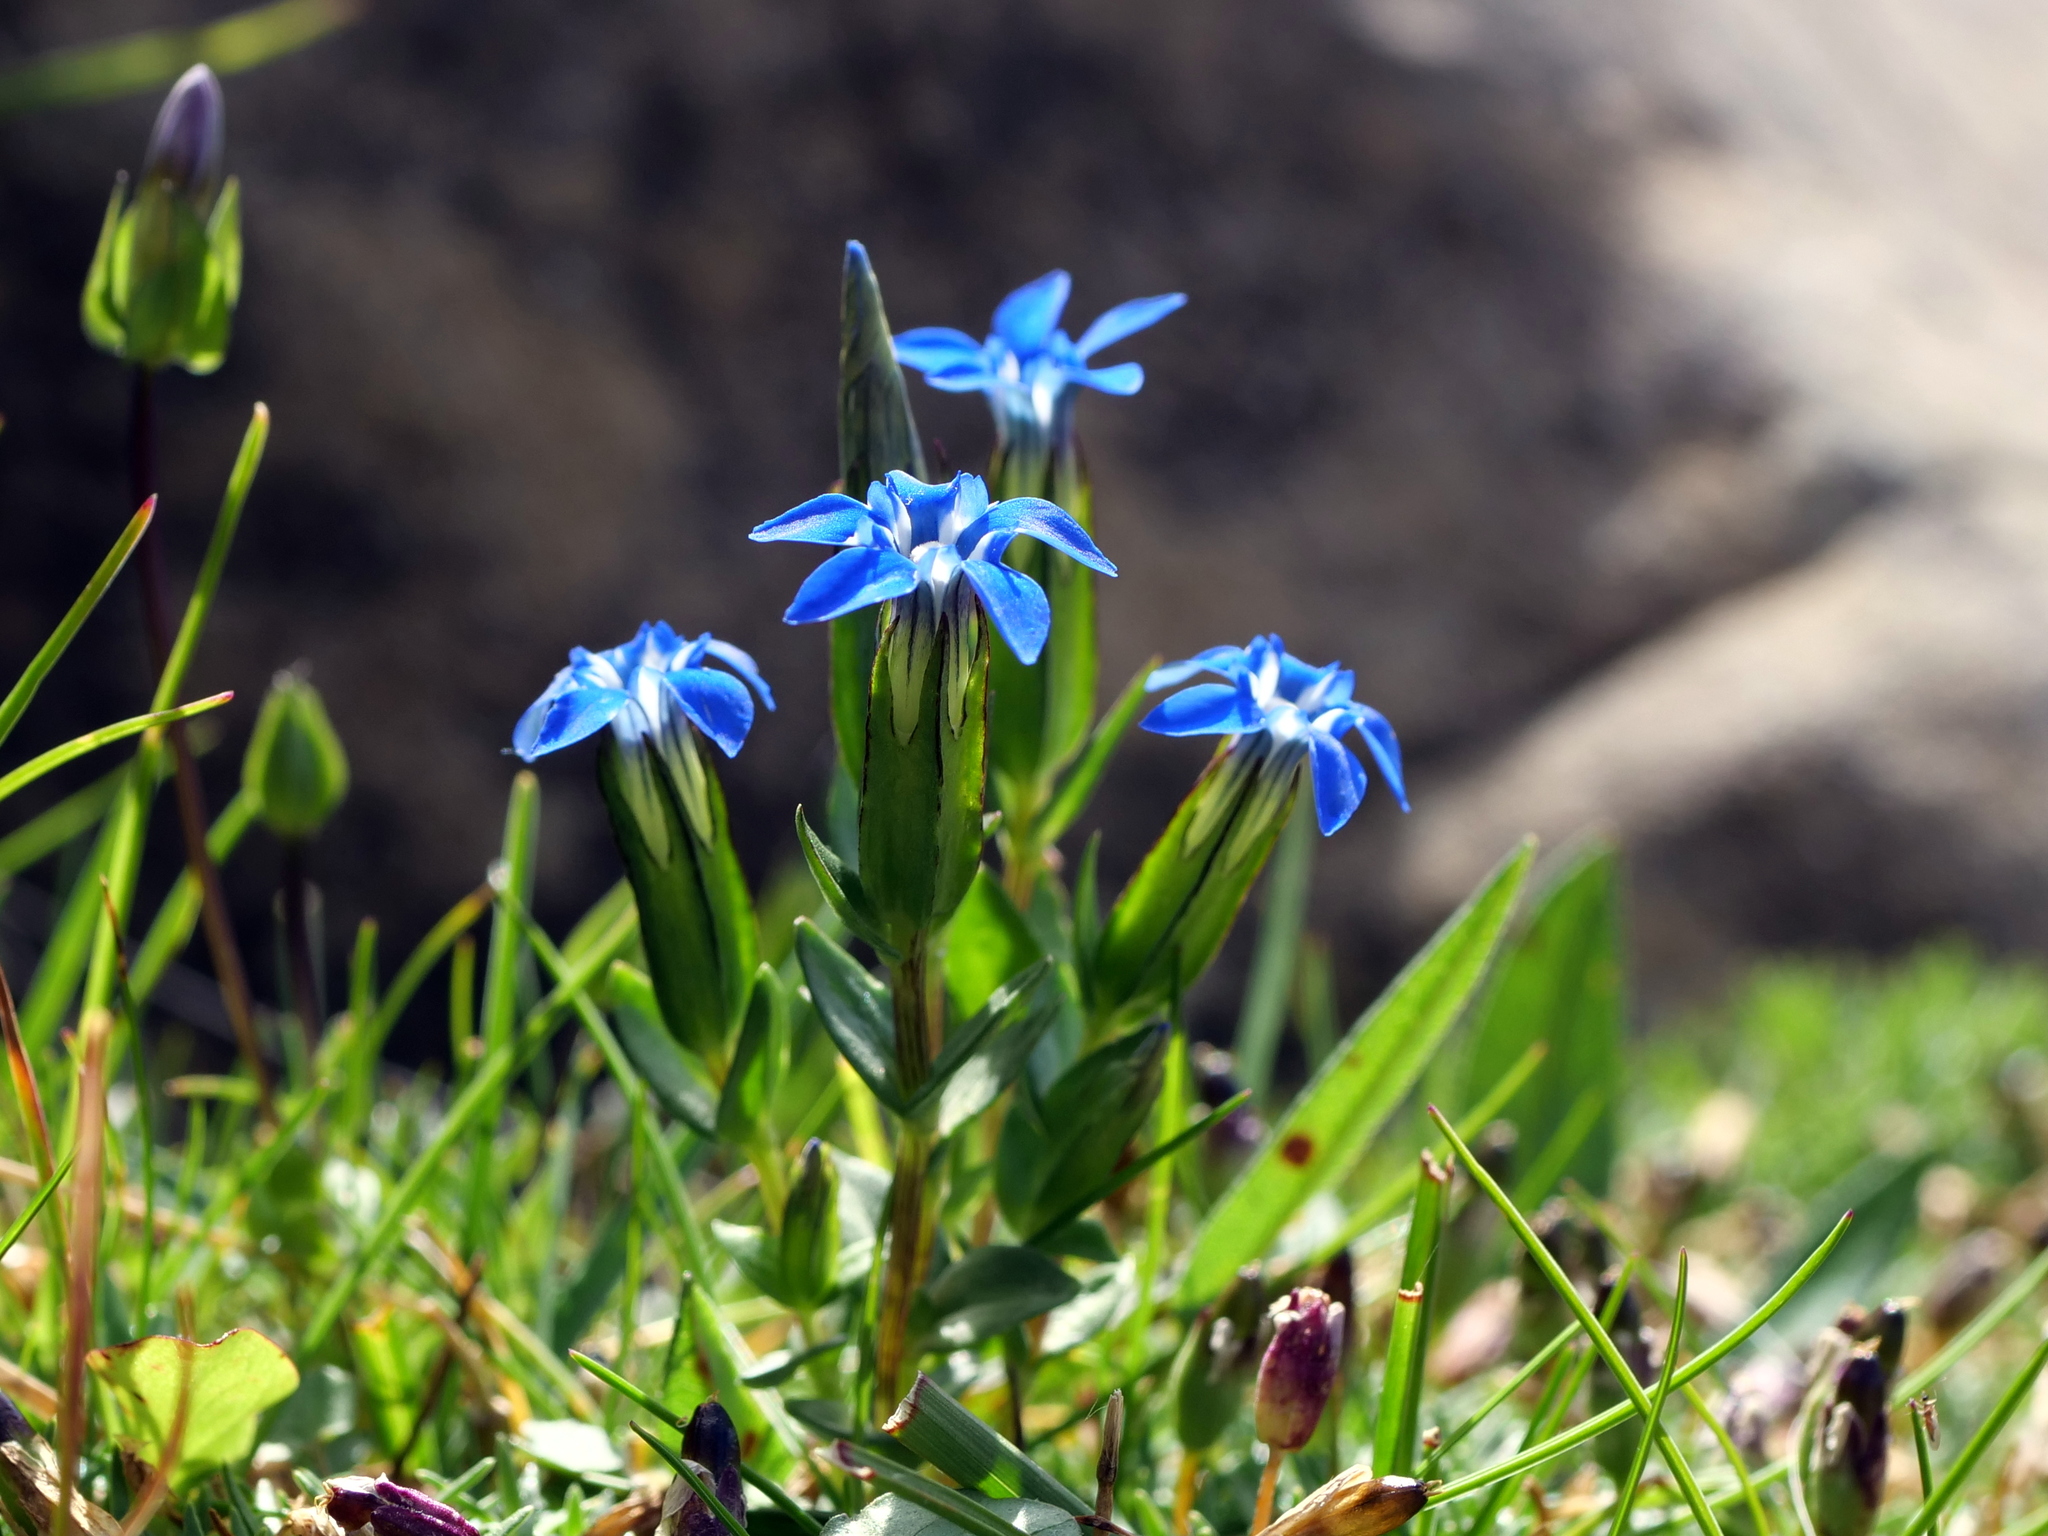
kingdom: Plantae
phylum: Tracheophyta
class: Magnoliopsida
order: Gentianales
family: Gentianaceae
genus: Gentiana
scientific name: Gentiana nivalis
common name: Alpine gentian
